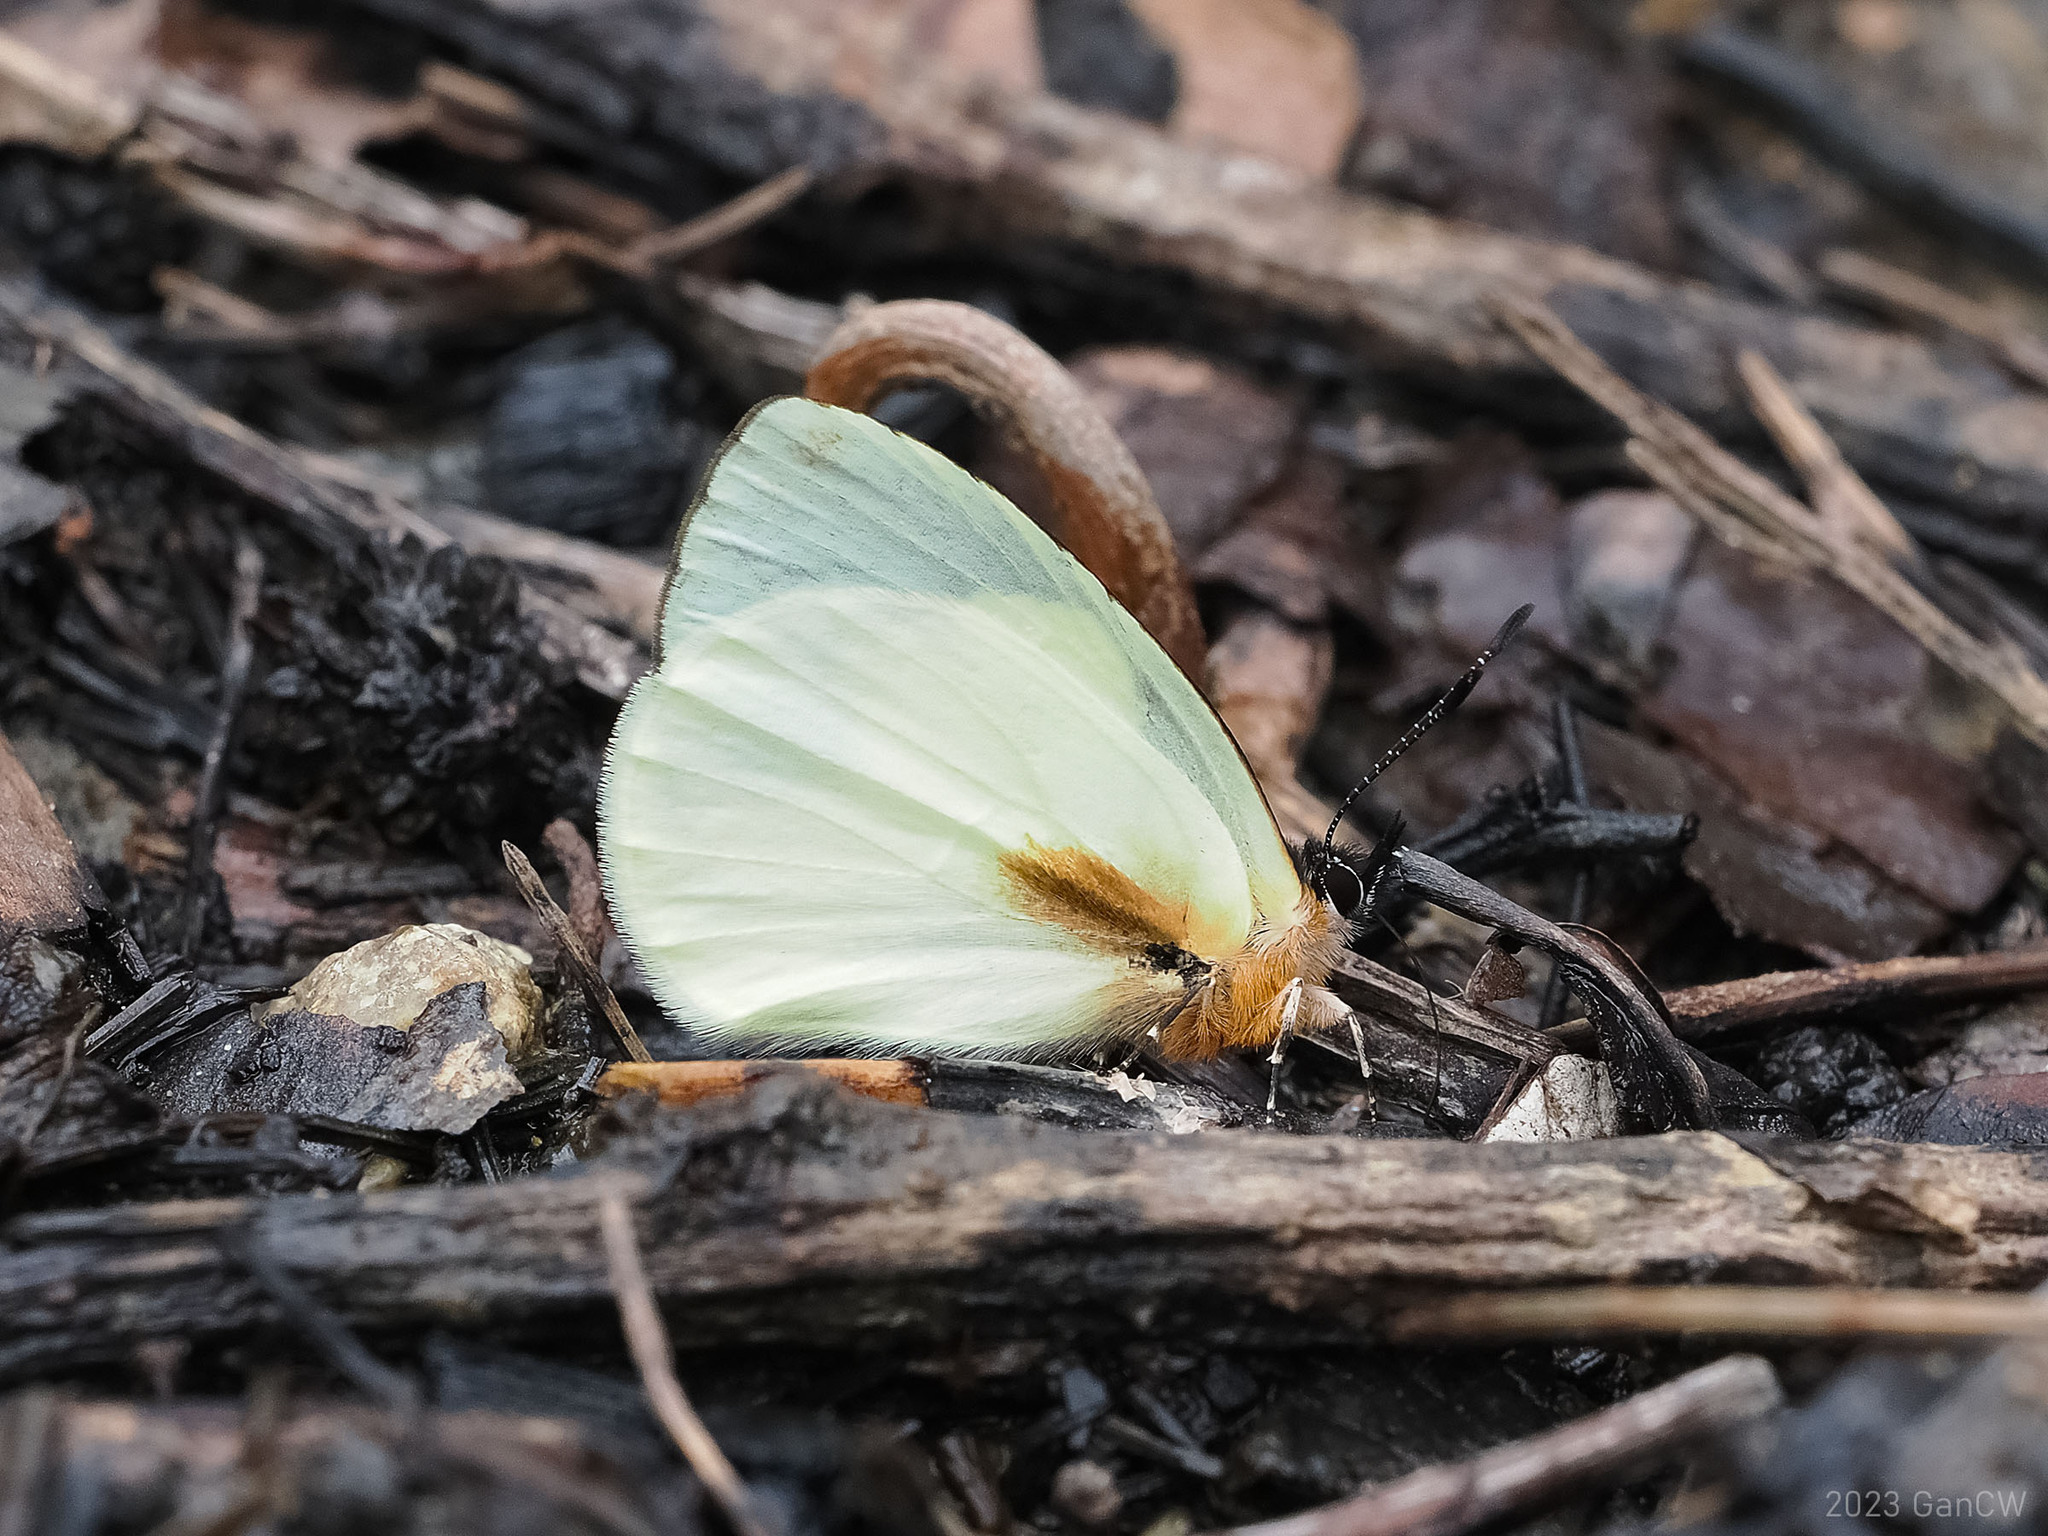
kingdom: Animalia
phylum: Arthropoda
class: Insecta
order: Lepidoptera
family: Lycaenidae
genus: Parelodina
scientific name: Parelodina aroa
